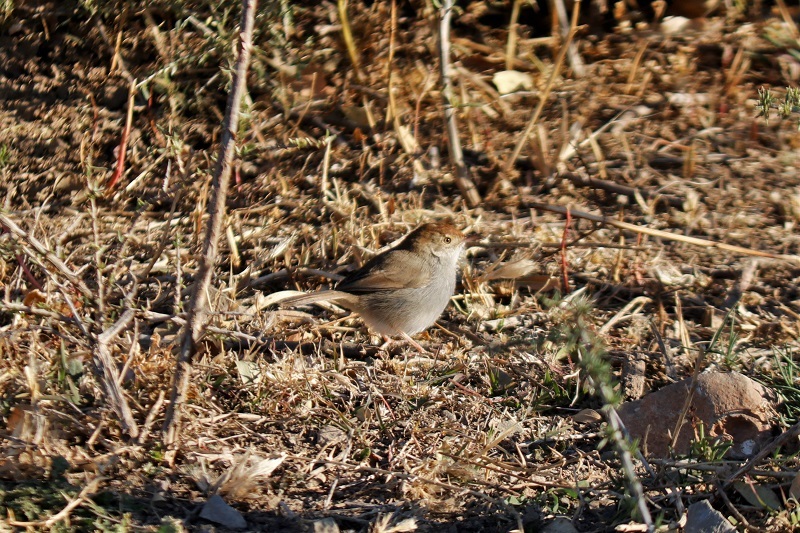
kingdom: Animalia
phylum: Chordata
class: Aves
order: Passeriformes
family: Cisticolidae
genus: Cisticola
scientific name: Cisticola fulvicapilla
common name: Neddicky
